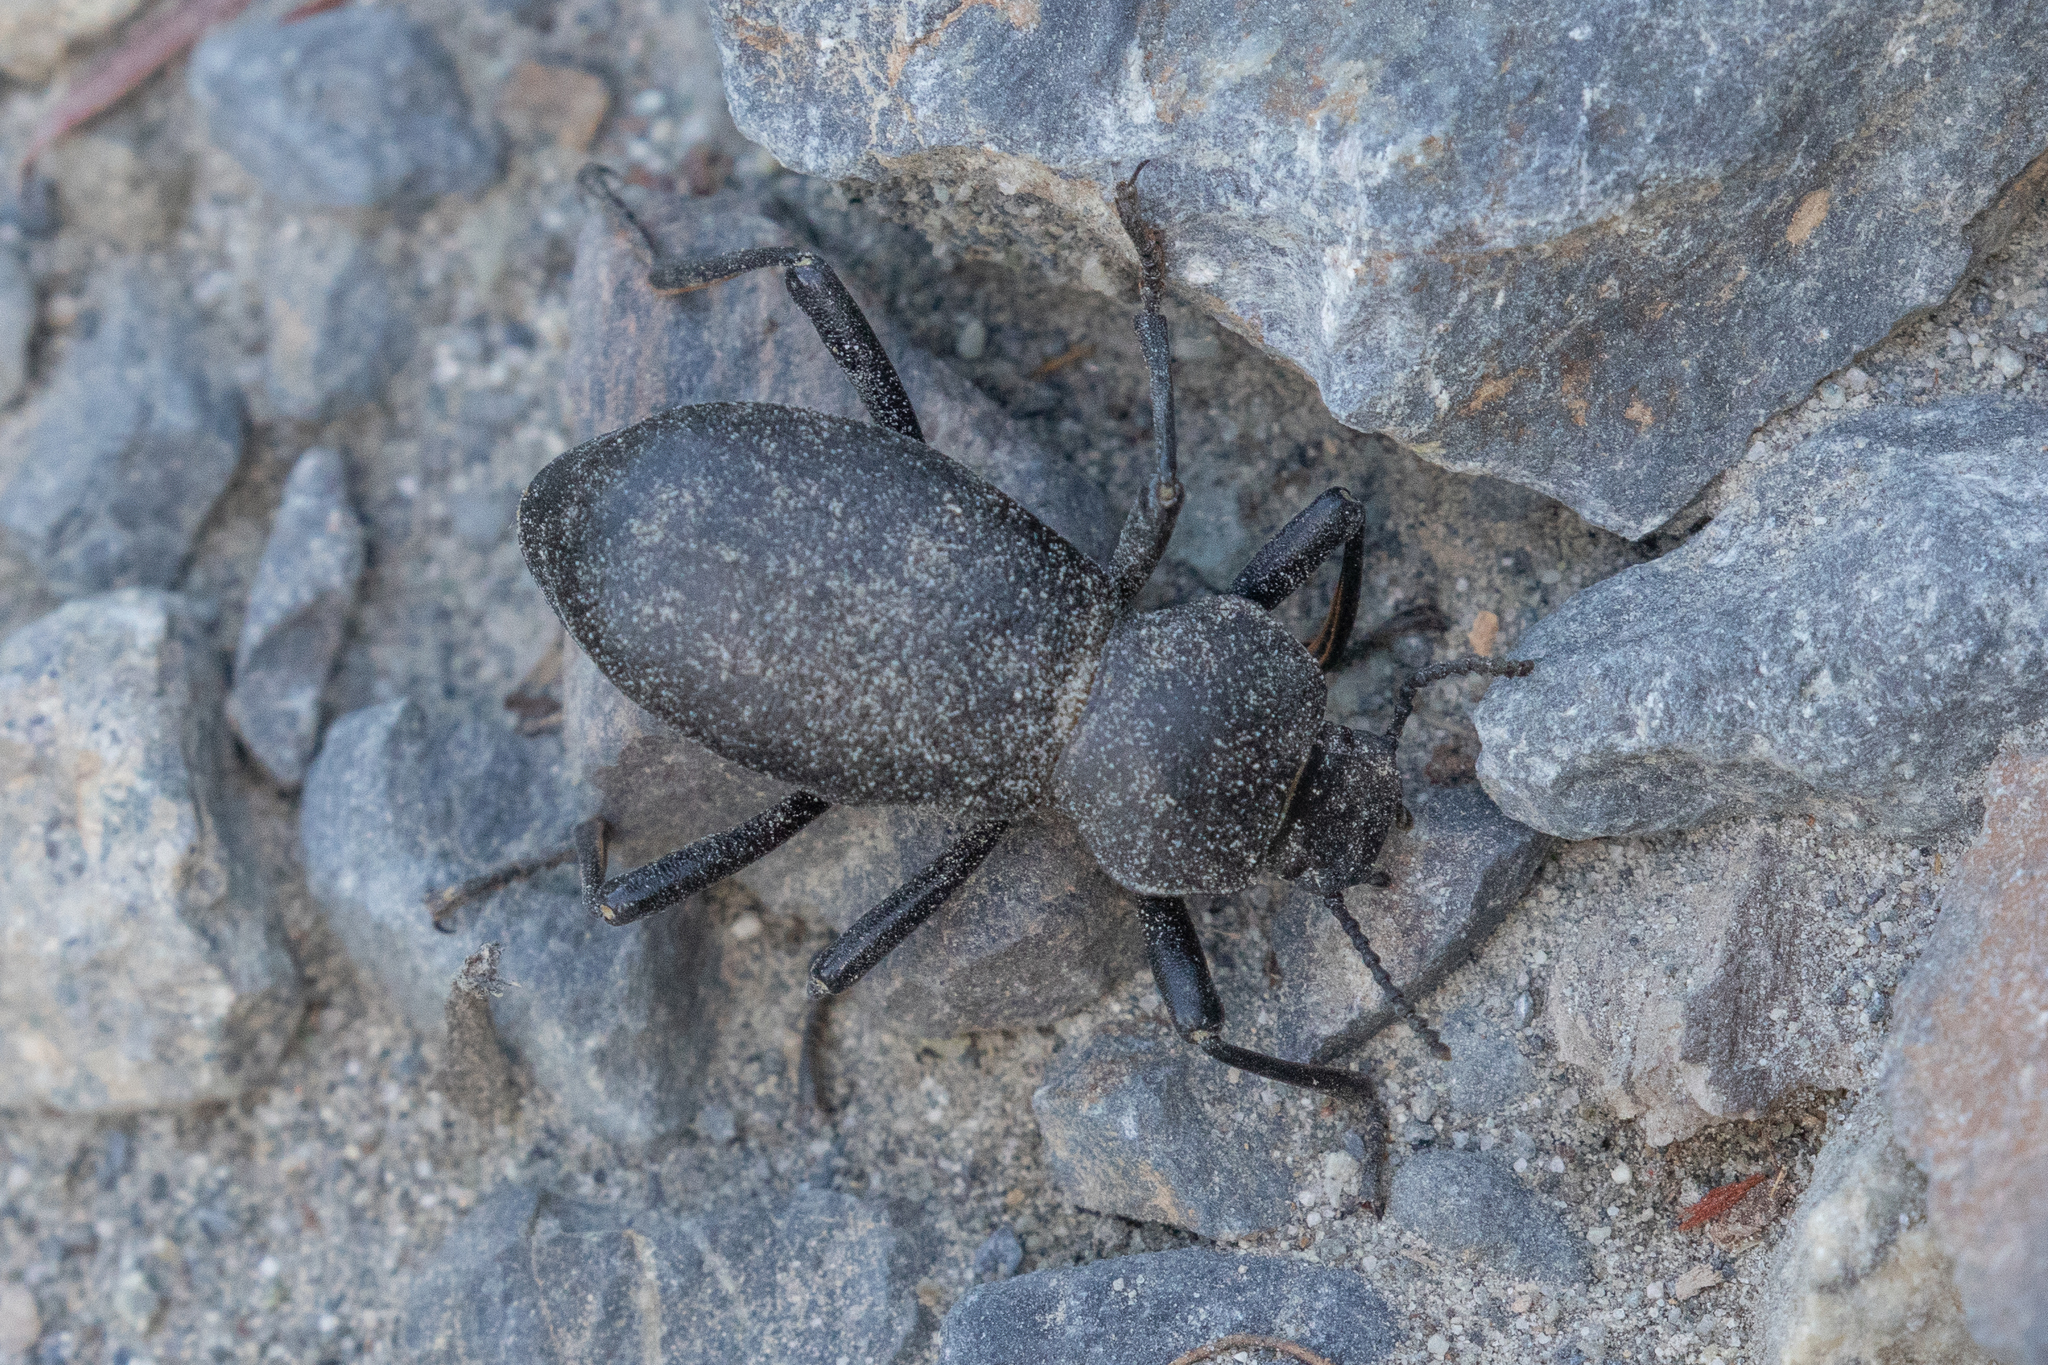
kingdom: Animalia
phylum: Arthropoda
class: Insecta
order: Coleoptera
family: Tenebrionidae
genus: Coelocnemis
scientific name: Coelocnemis dilaticollis
